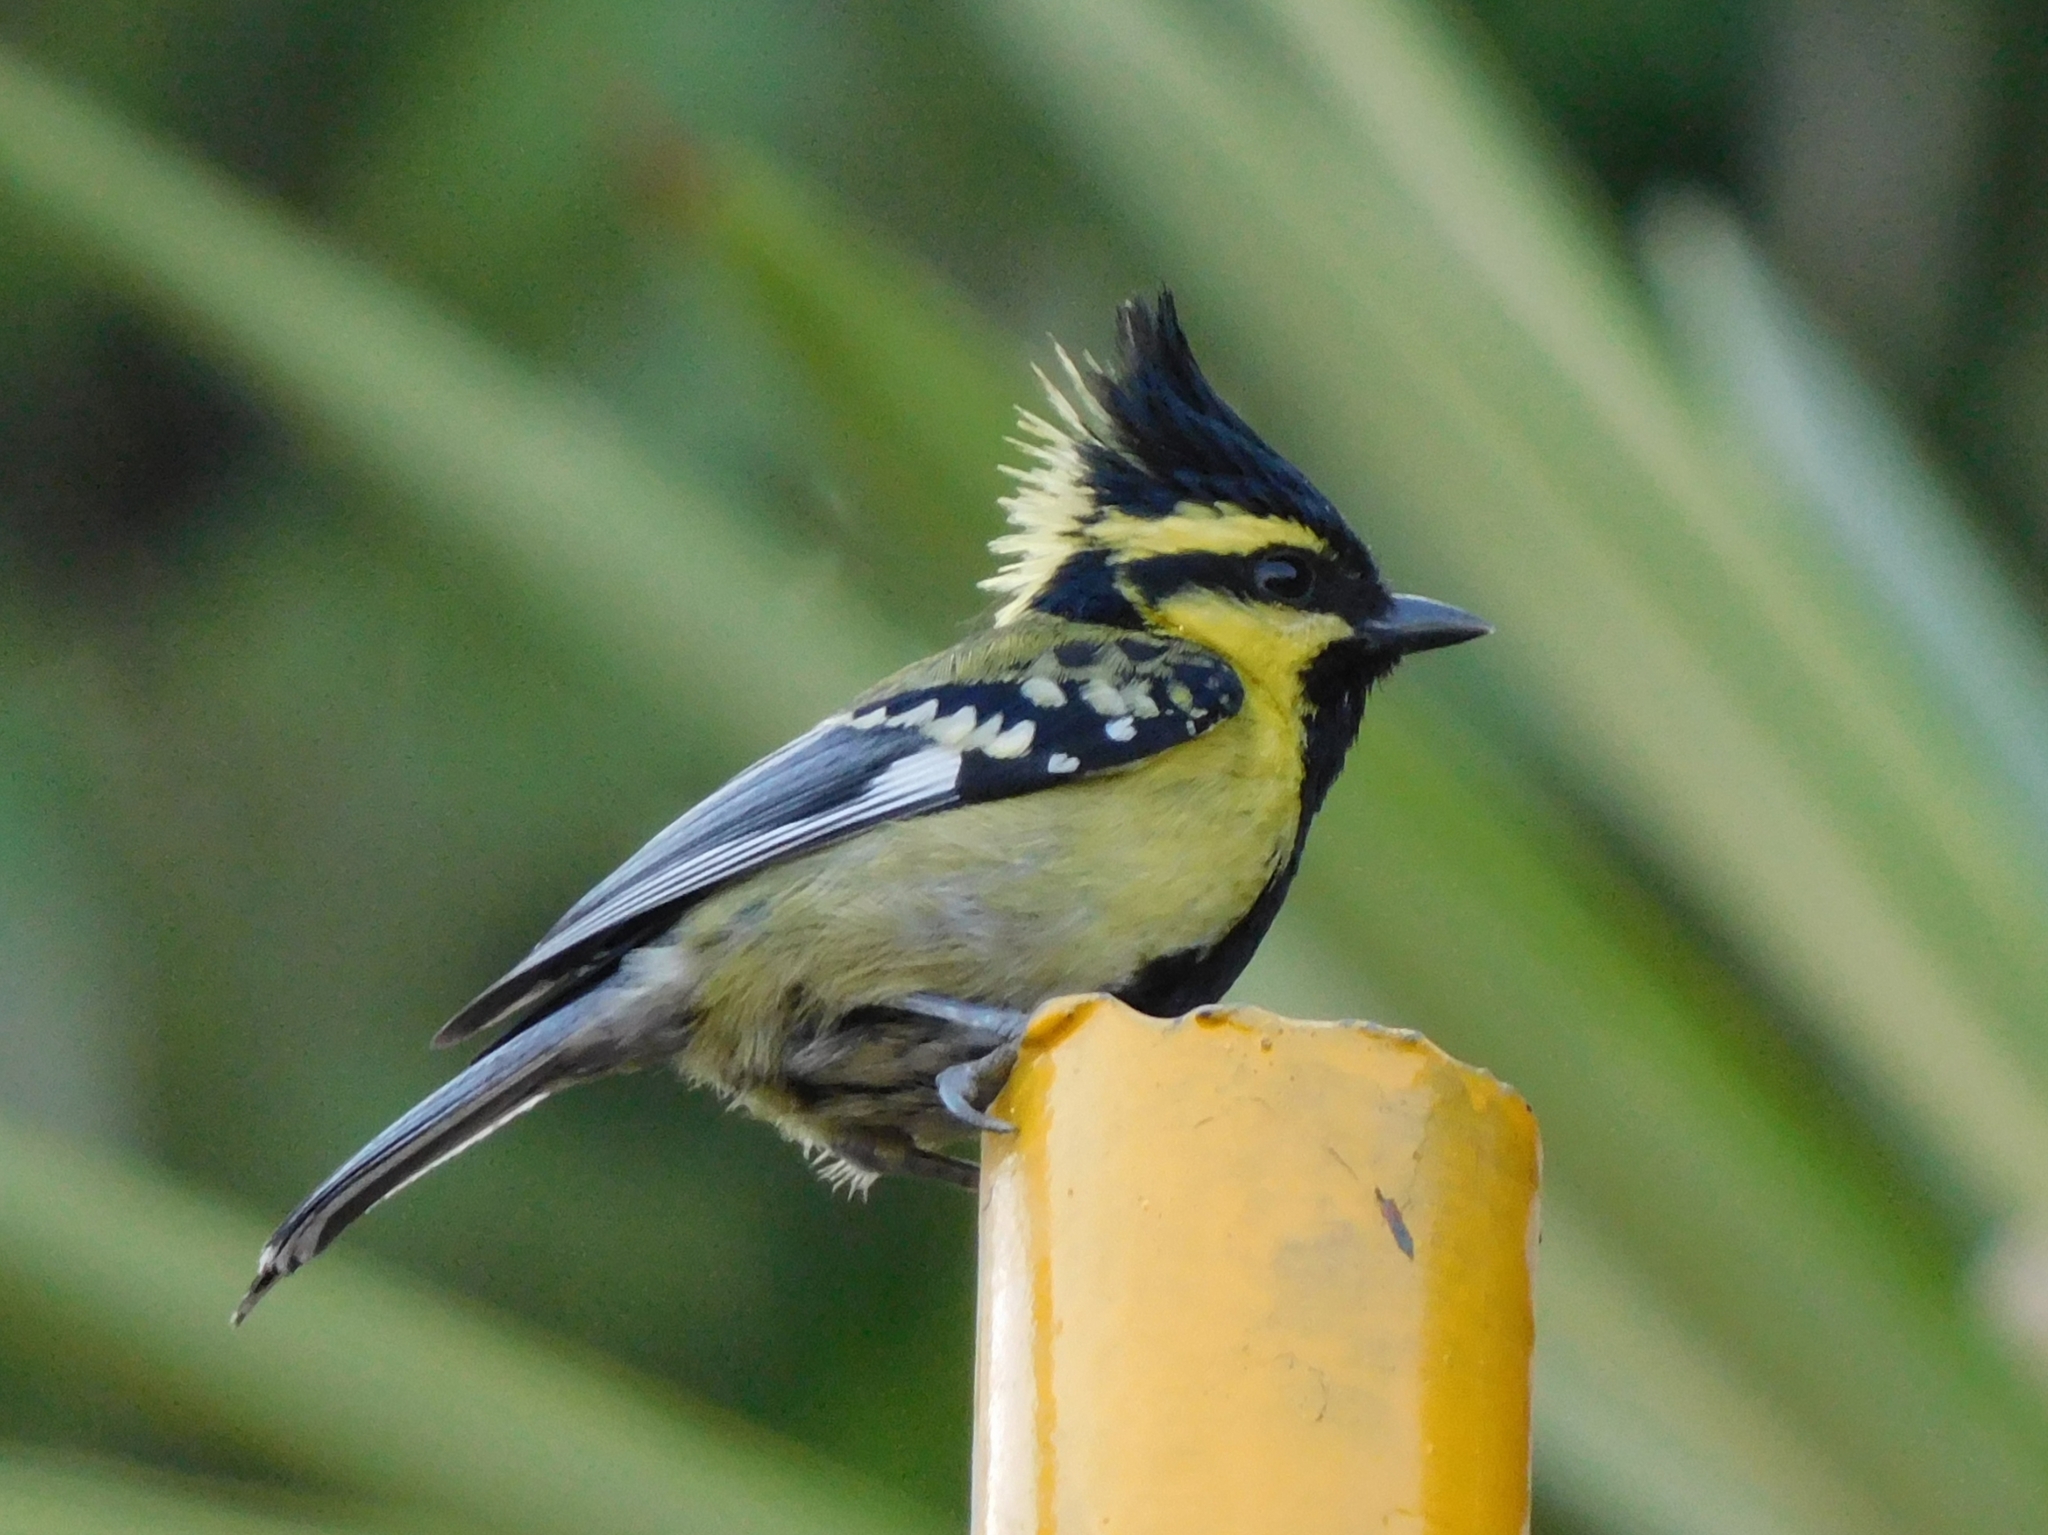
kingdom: Animalia
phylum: Chordata
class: Aves
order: Passeriformes
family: Paridae
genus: Parus
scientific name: Parus xanthogenys
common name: Black-lored tit
